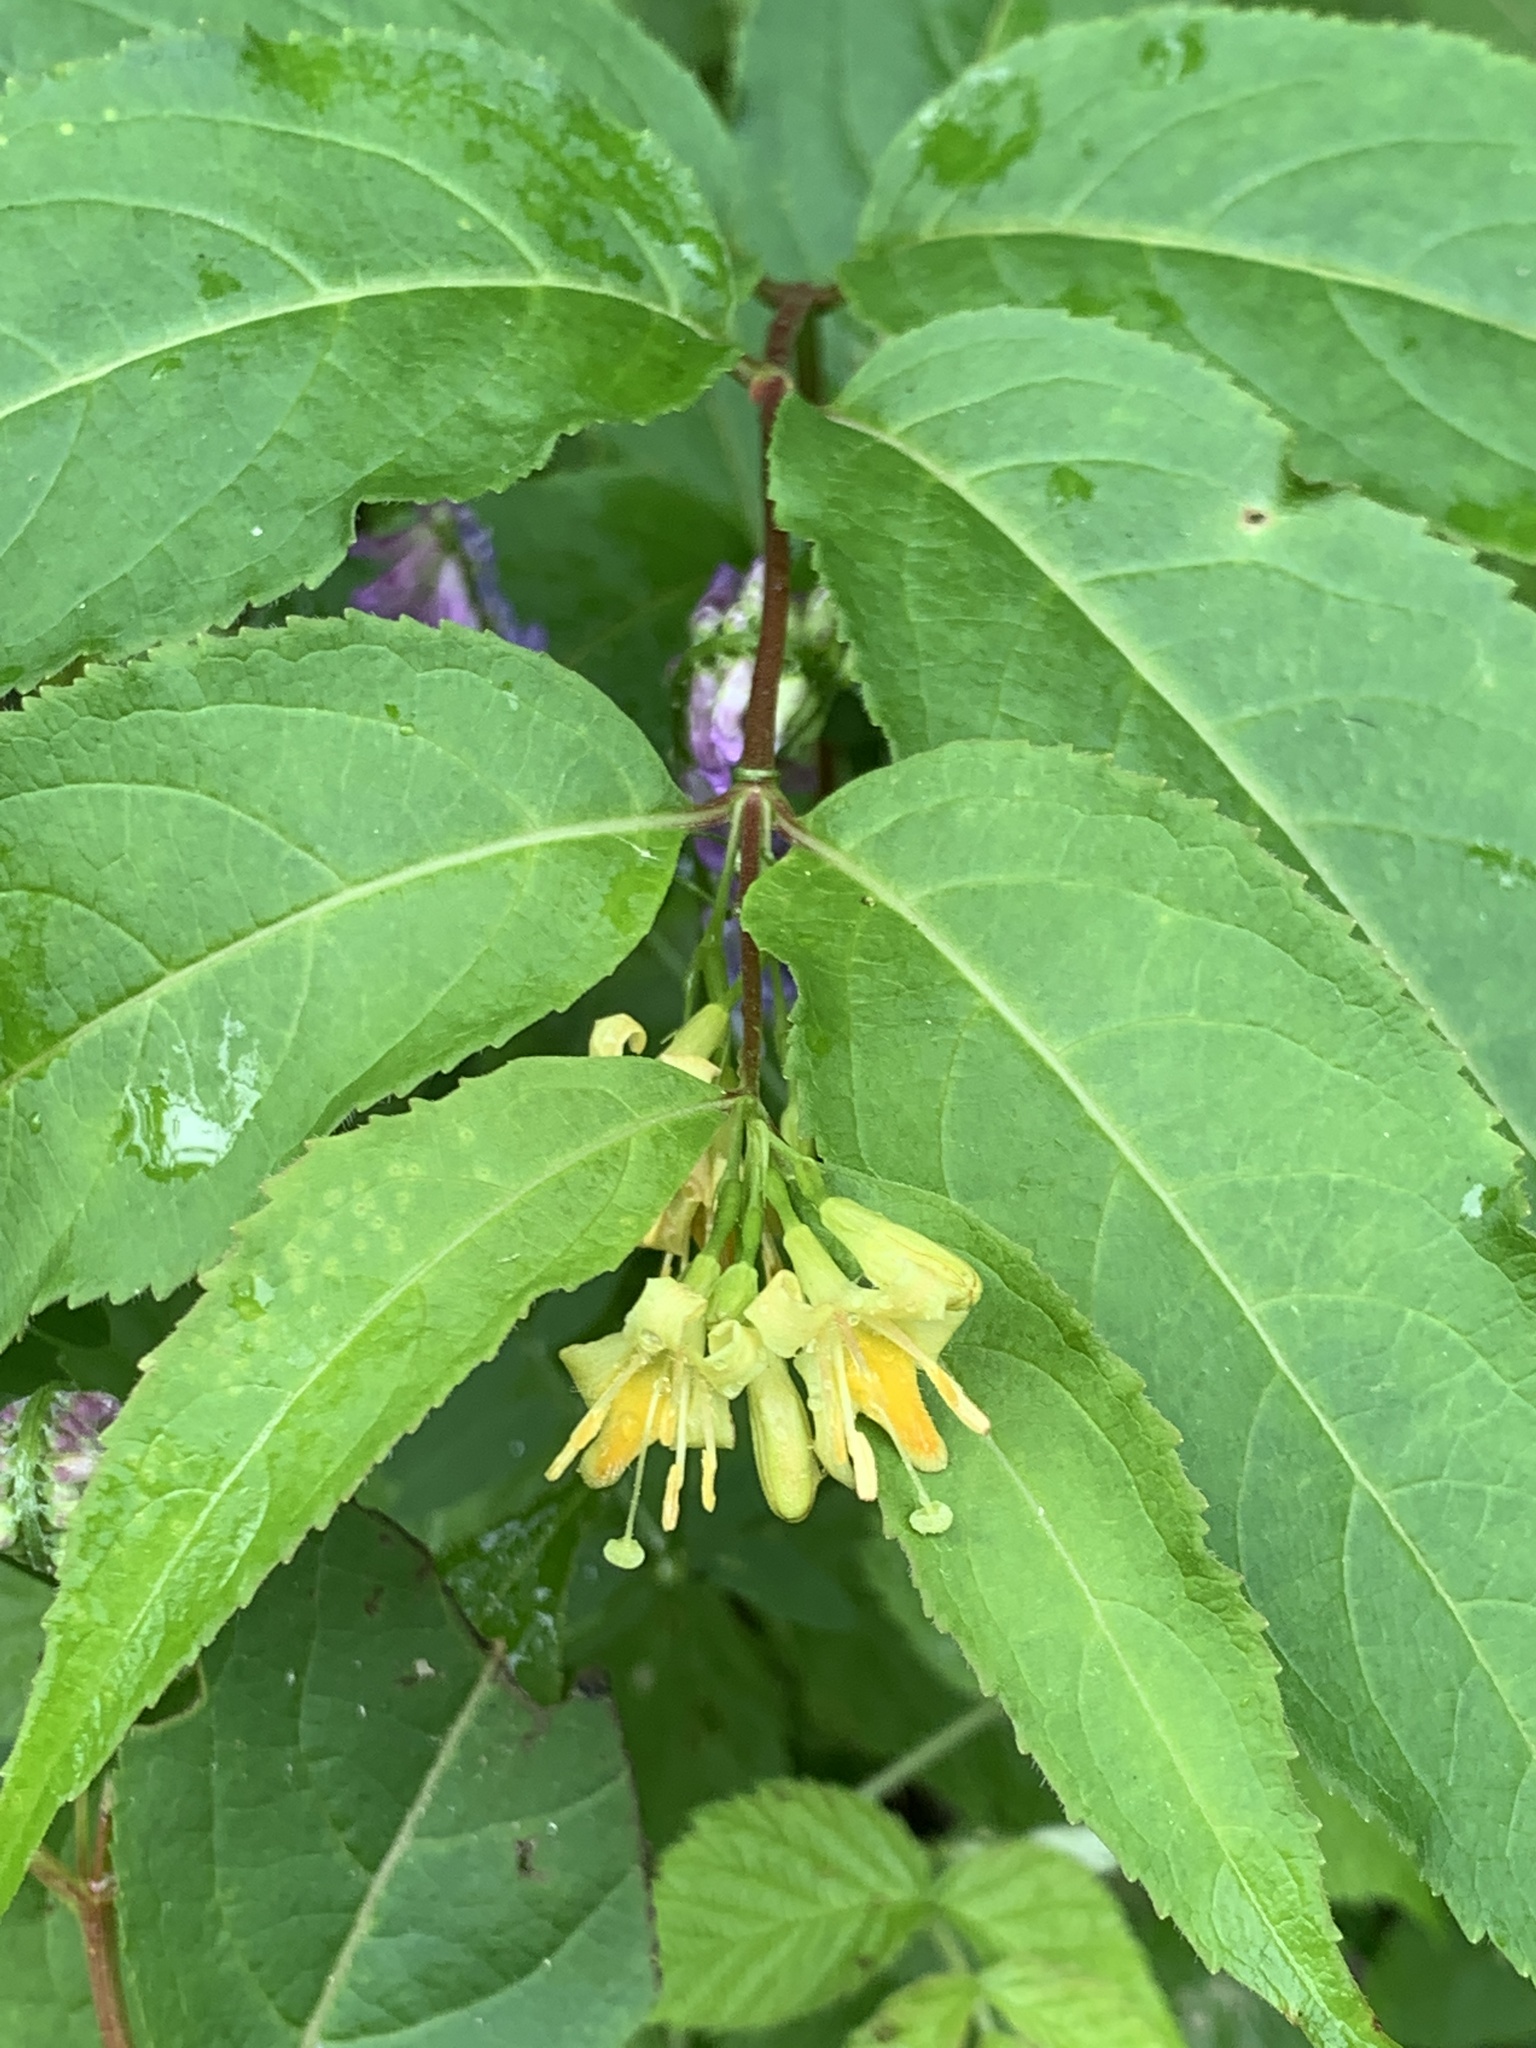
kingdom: Plantae
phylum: Tracheophyta
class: Magnoliopsida
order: Dipsacales
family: Caprifoliaceae
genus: Diervilla
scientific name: Diervilla lonicera
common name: Bush-honeysuckle
